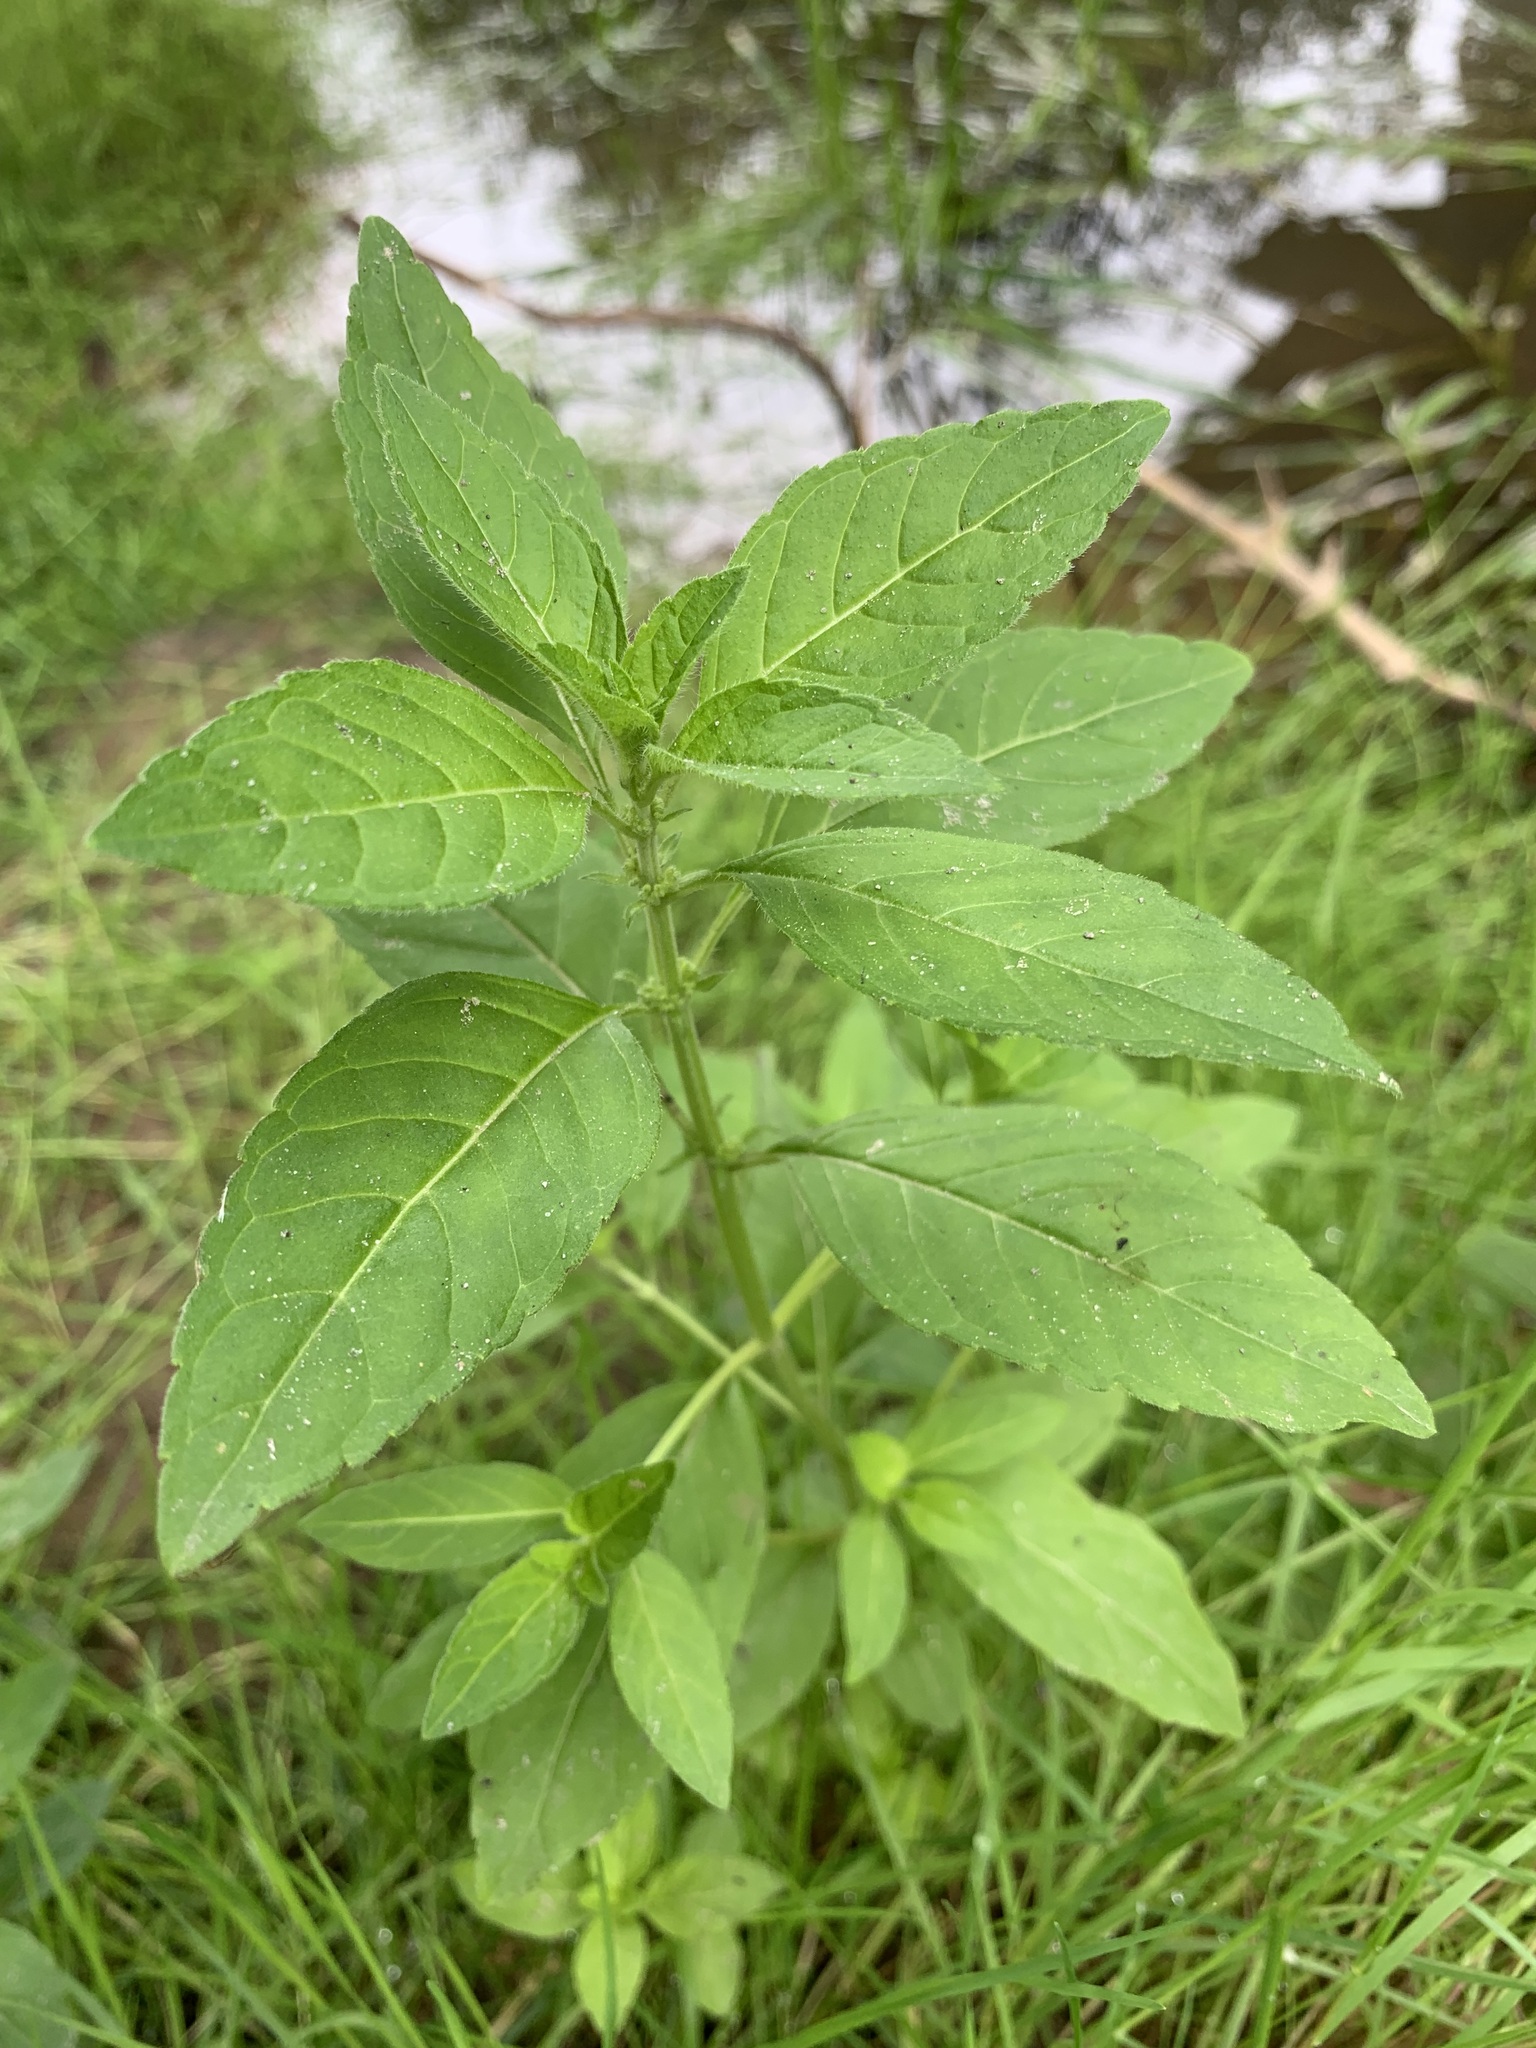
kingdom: Plantae
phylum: Tracheophyta
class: Magnoliopsida
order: Lamiales
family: Lamiaceae
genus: Mentha
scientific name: Mentha arvensis
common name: Corn mint
